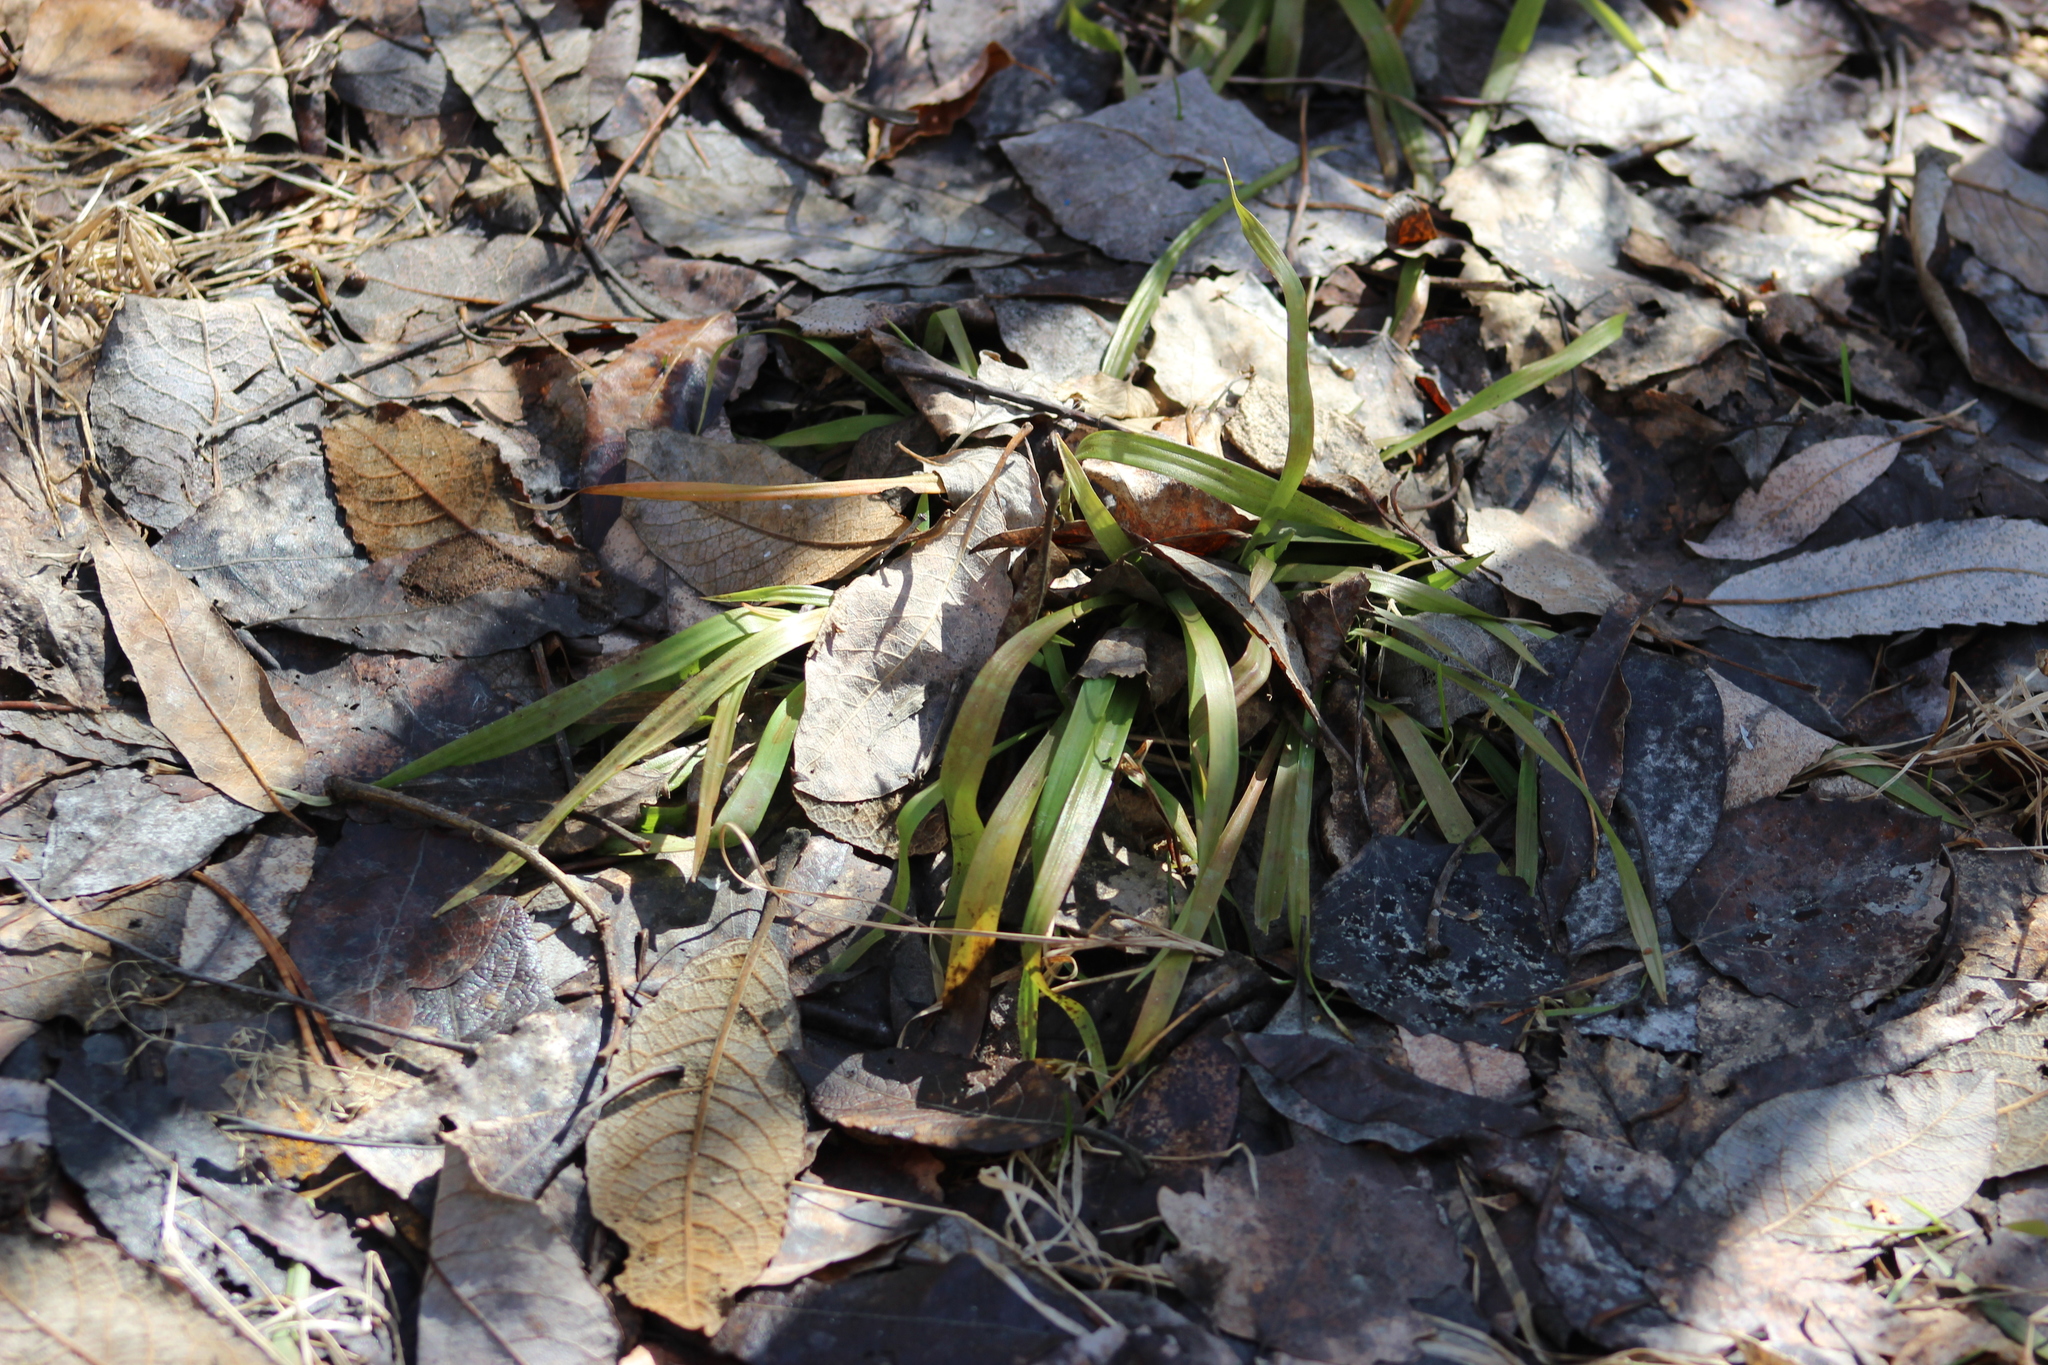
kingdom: Plantae
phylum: Tracheophyta
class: Liliopsida
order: Poales
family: Juncaceae
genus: Luzula
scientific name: Luzula pilosa
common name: Hairy wood-rush
